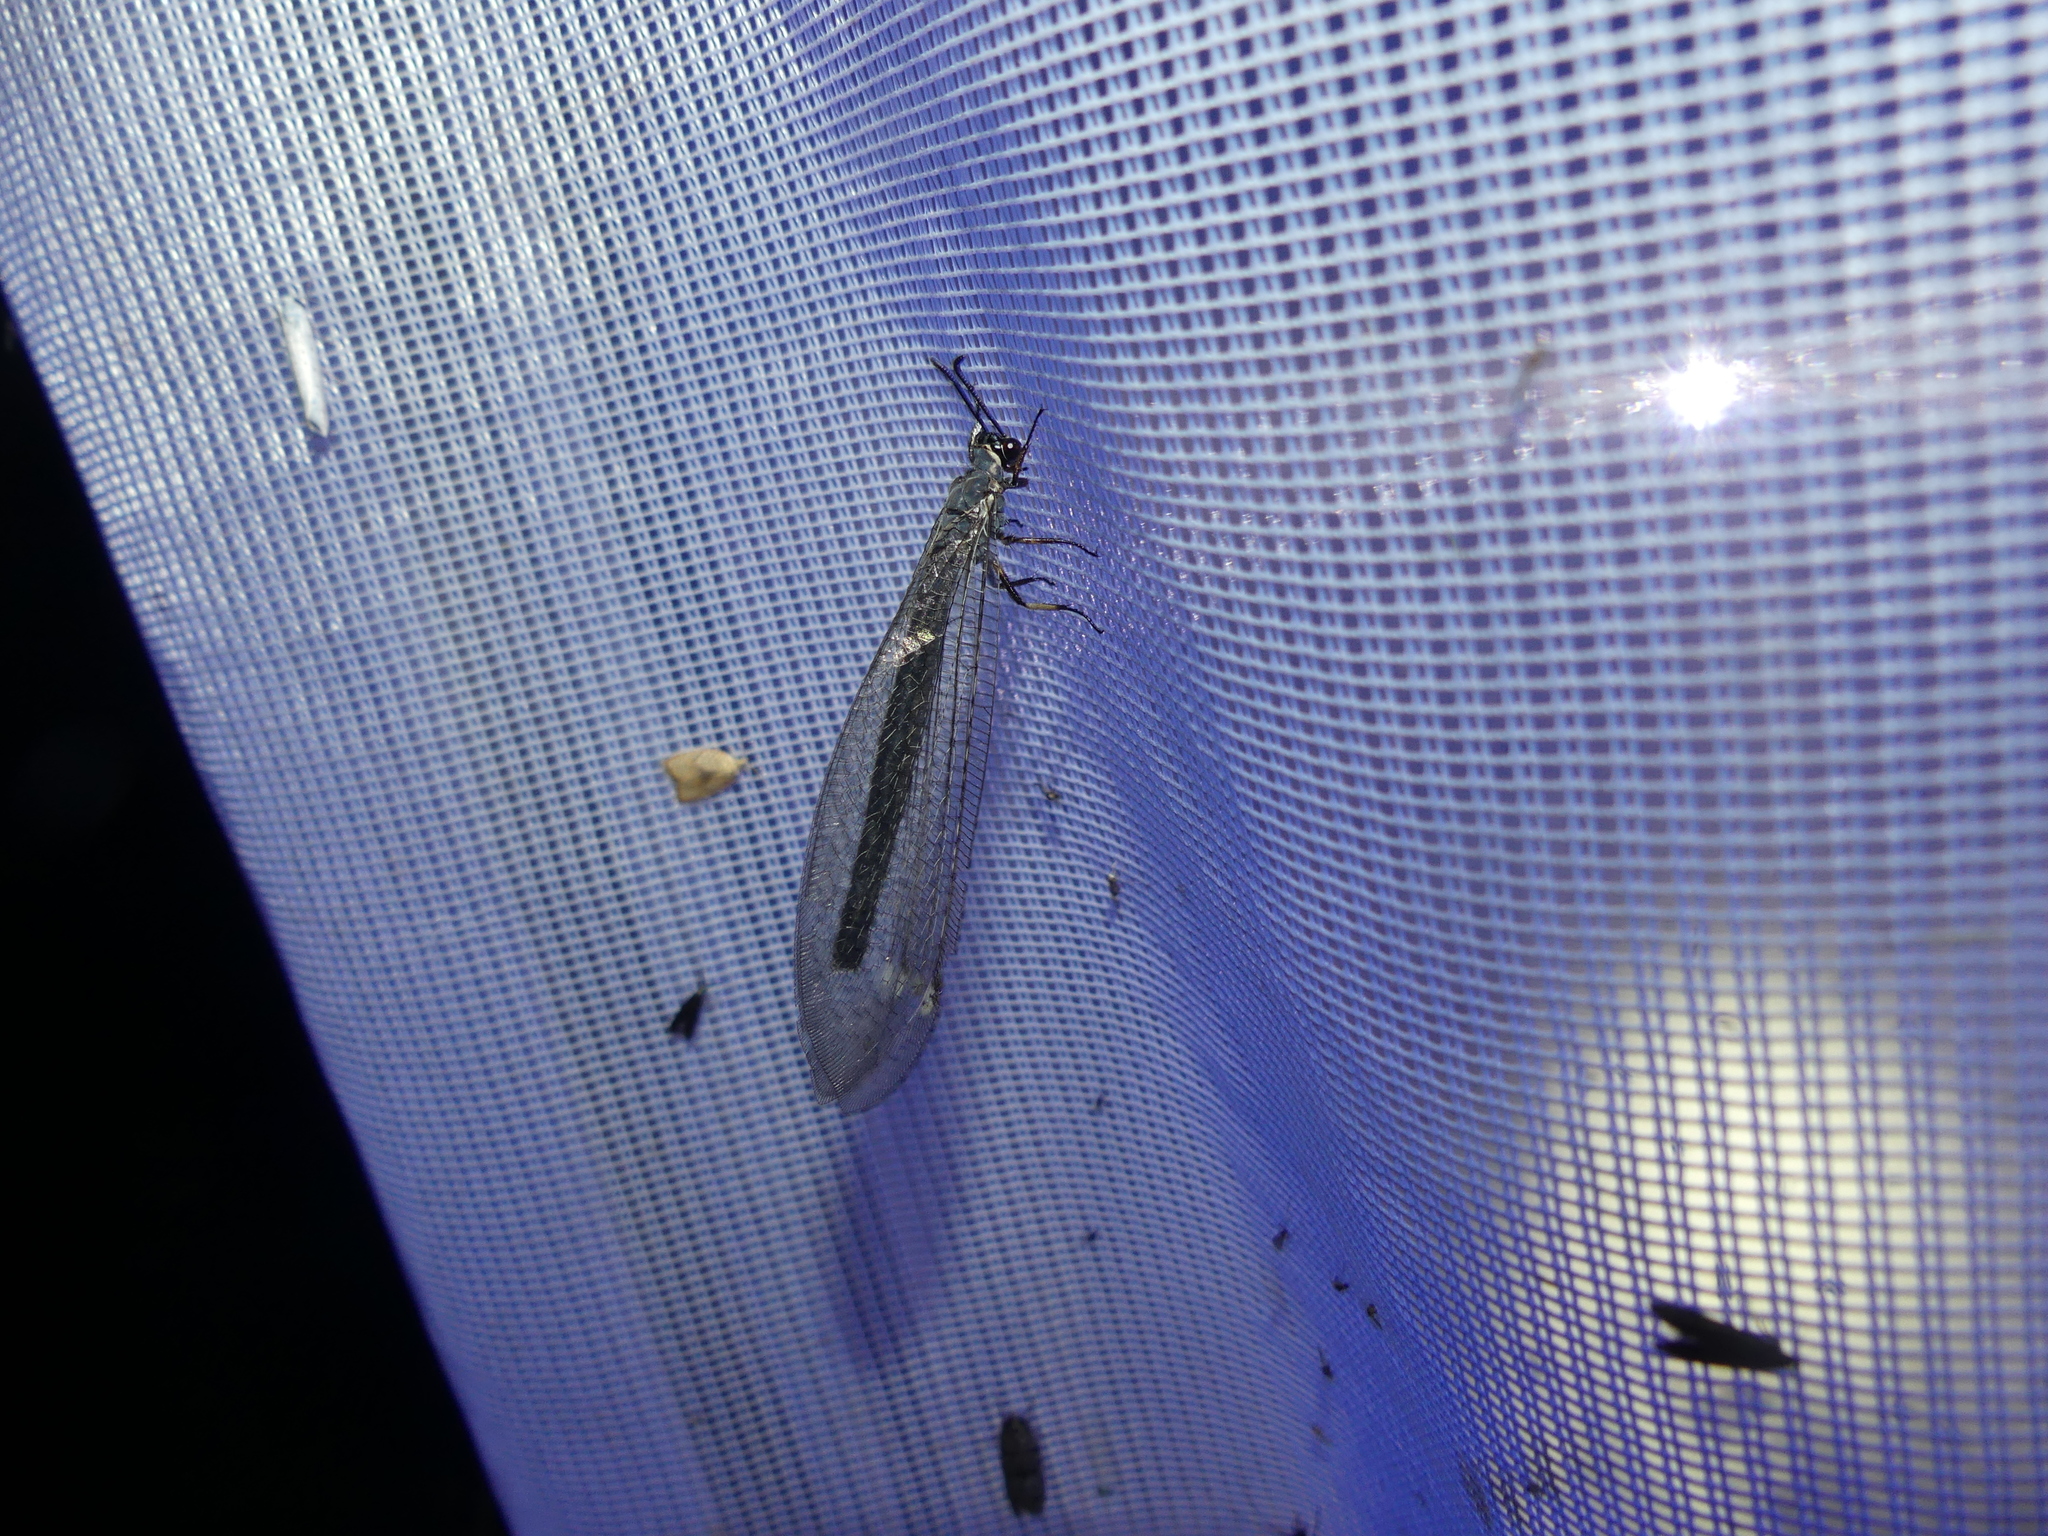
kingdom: Animalia
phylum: Arthropoda
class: Insecta
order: Neuroptera
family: Myrmeleontidae
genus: Myrmeleon
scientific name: Myrmeleon formicarius
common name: Ant-lion
